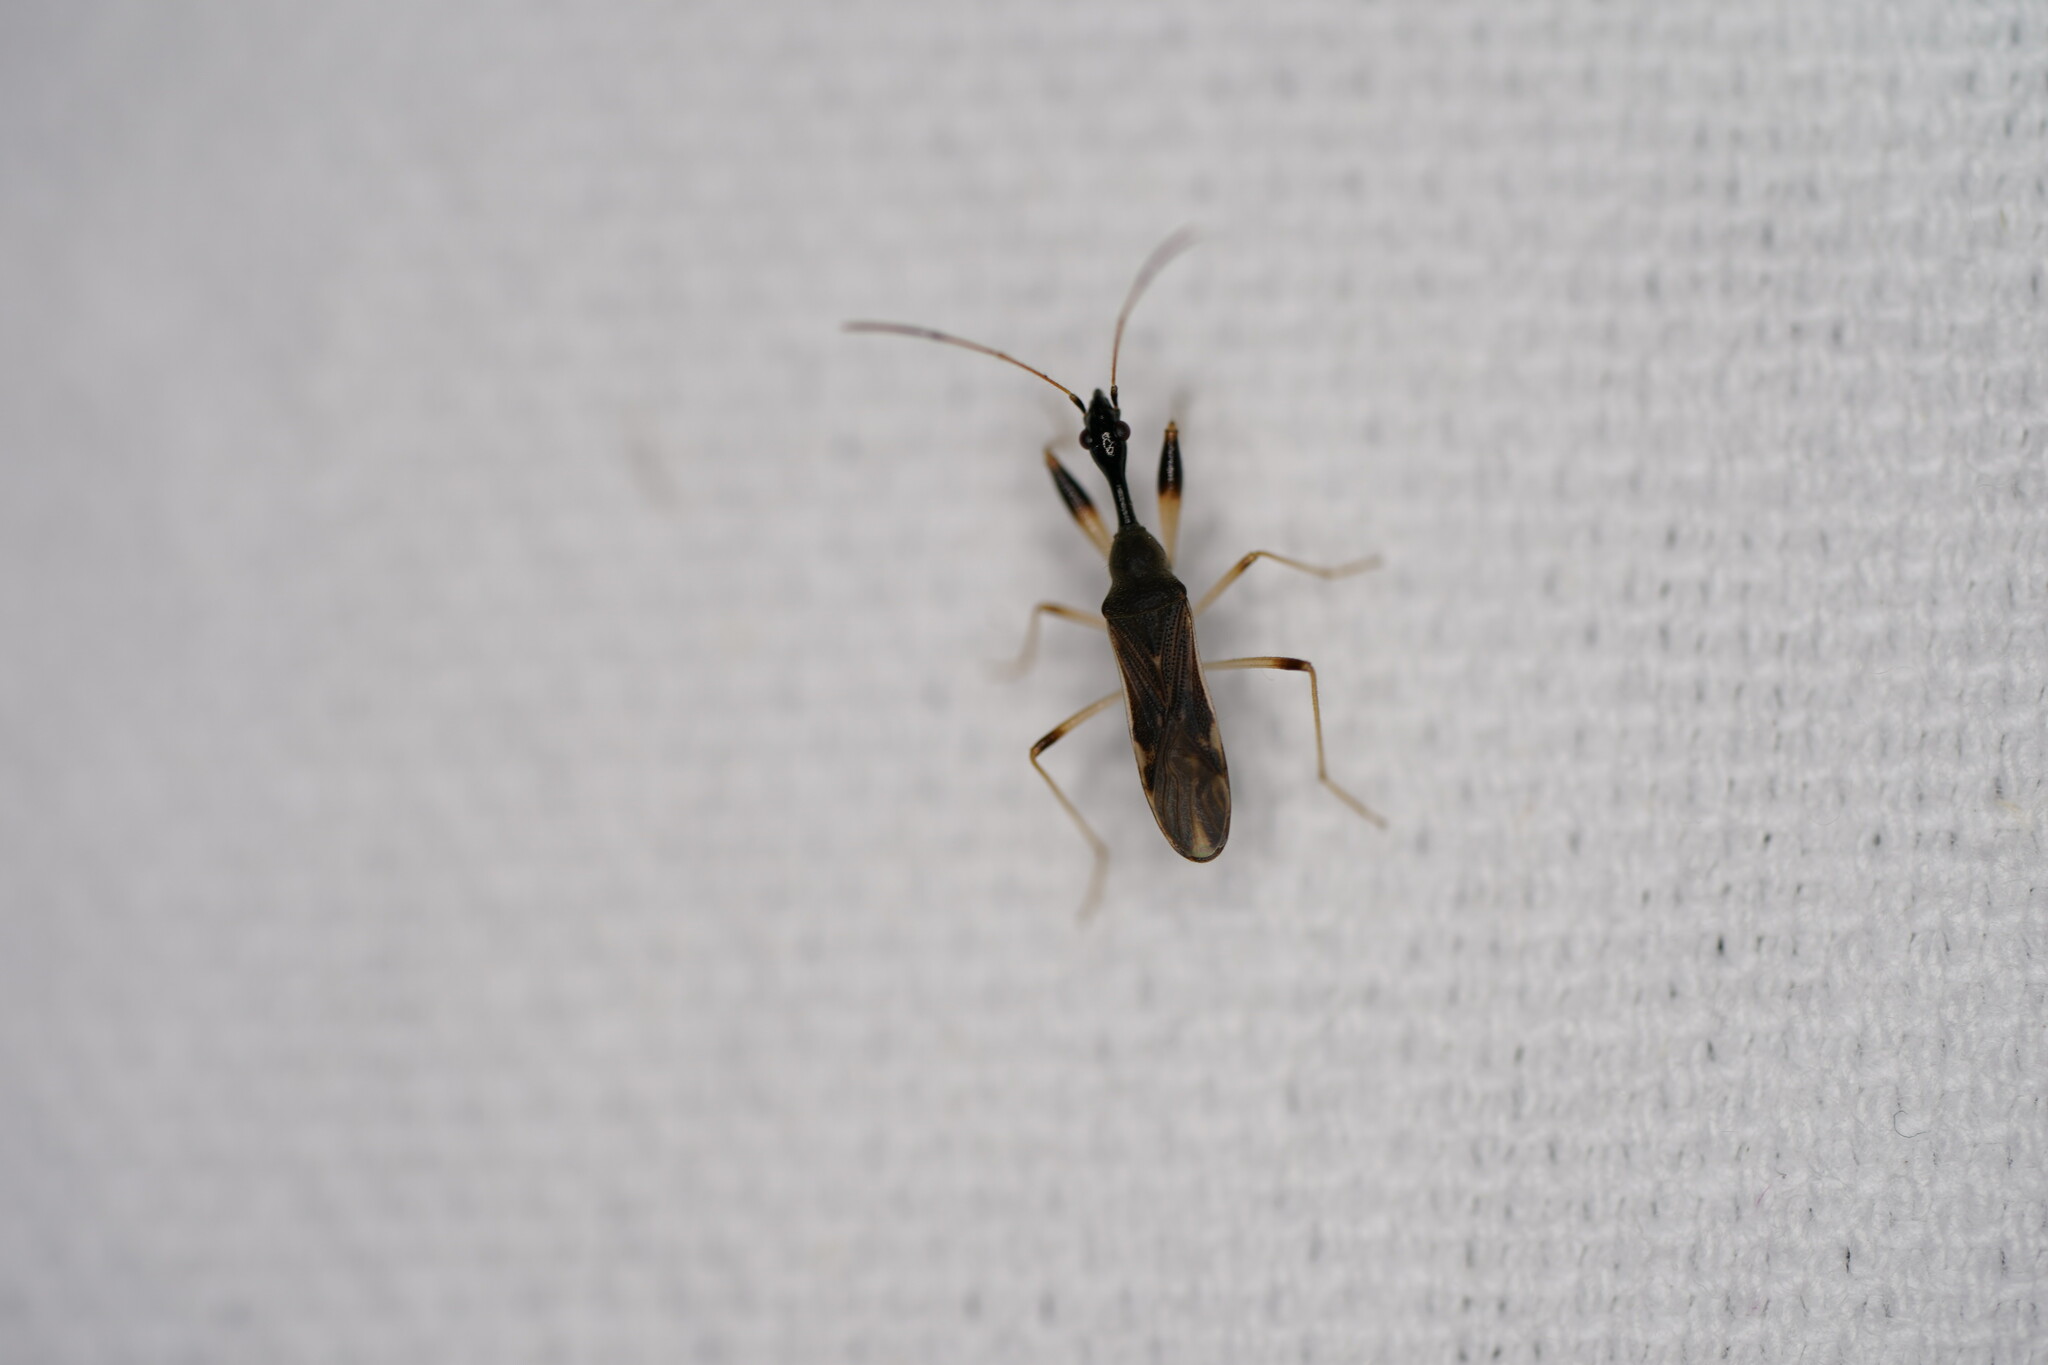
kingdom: Animalia
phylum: Arthropoda
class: Insecta
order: Hemiptera
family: Rhyparochromidae
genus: Myodocha
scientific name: Myodocha serripes
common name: Long-necked seed bug
